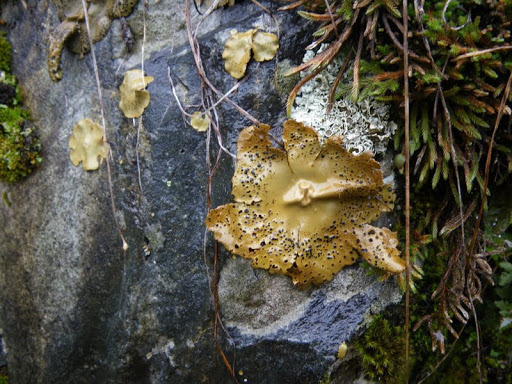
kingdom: Fungi
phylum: Ascomycota
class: Lecanoromycetes
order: Umbilicariales
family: Umbilicariaceae
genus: Umbilicaria
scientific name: Umbilicaria phaea
